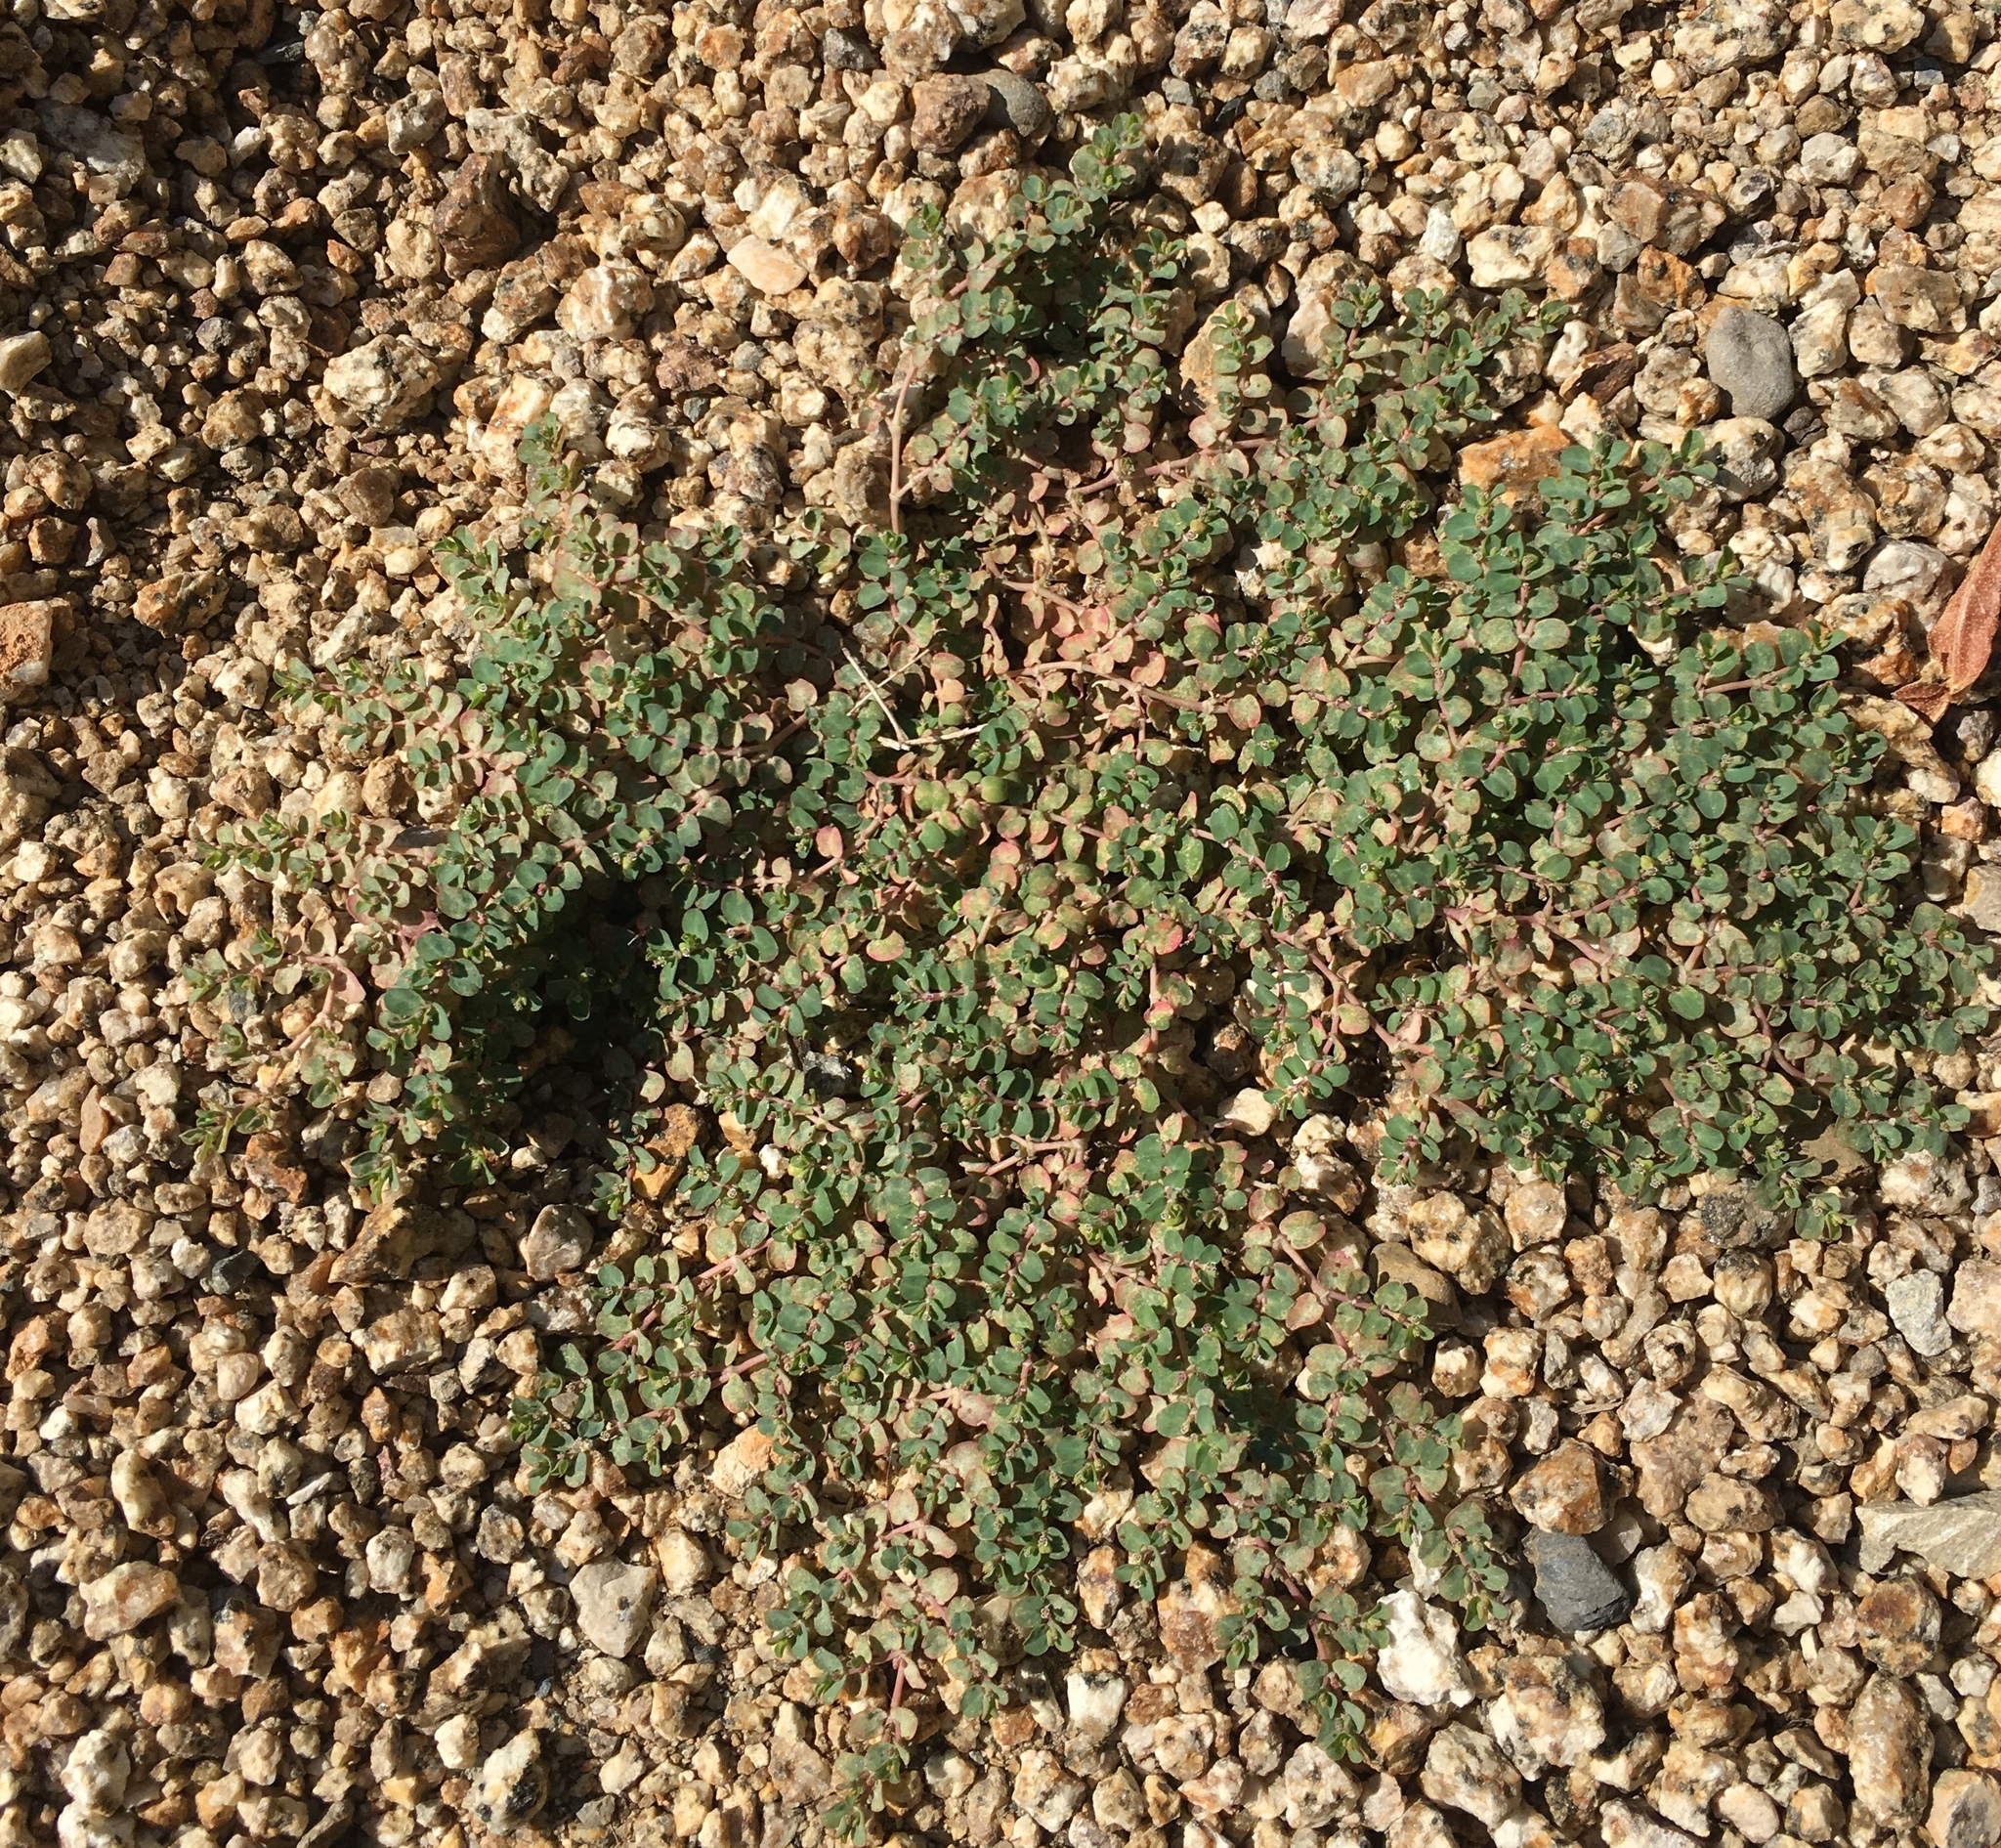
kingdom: Plantae
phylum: Tracheophyta
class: Magnoliopsida
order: Malpighiales
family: Euphorbiaceae
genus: Euphorbia
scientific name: Euphorbia serpens
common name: Matted sandmat
